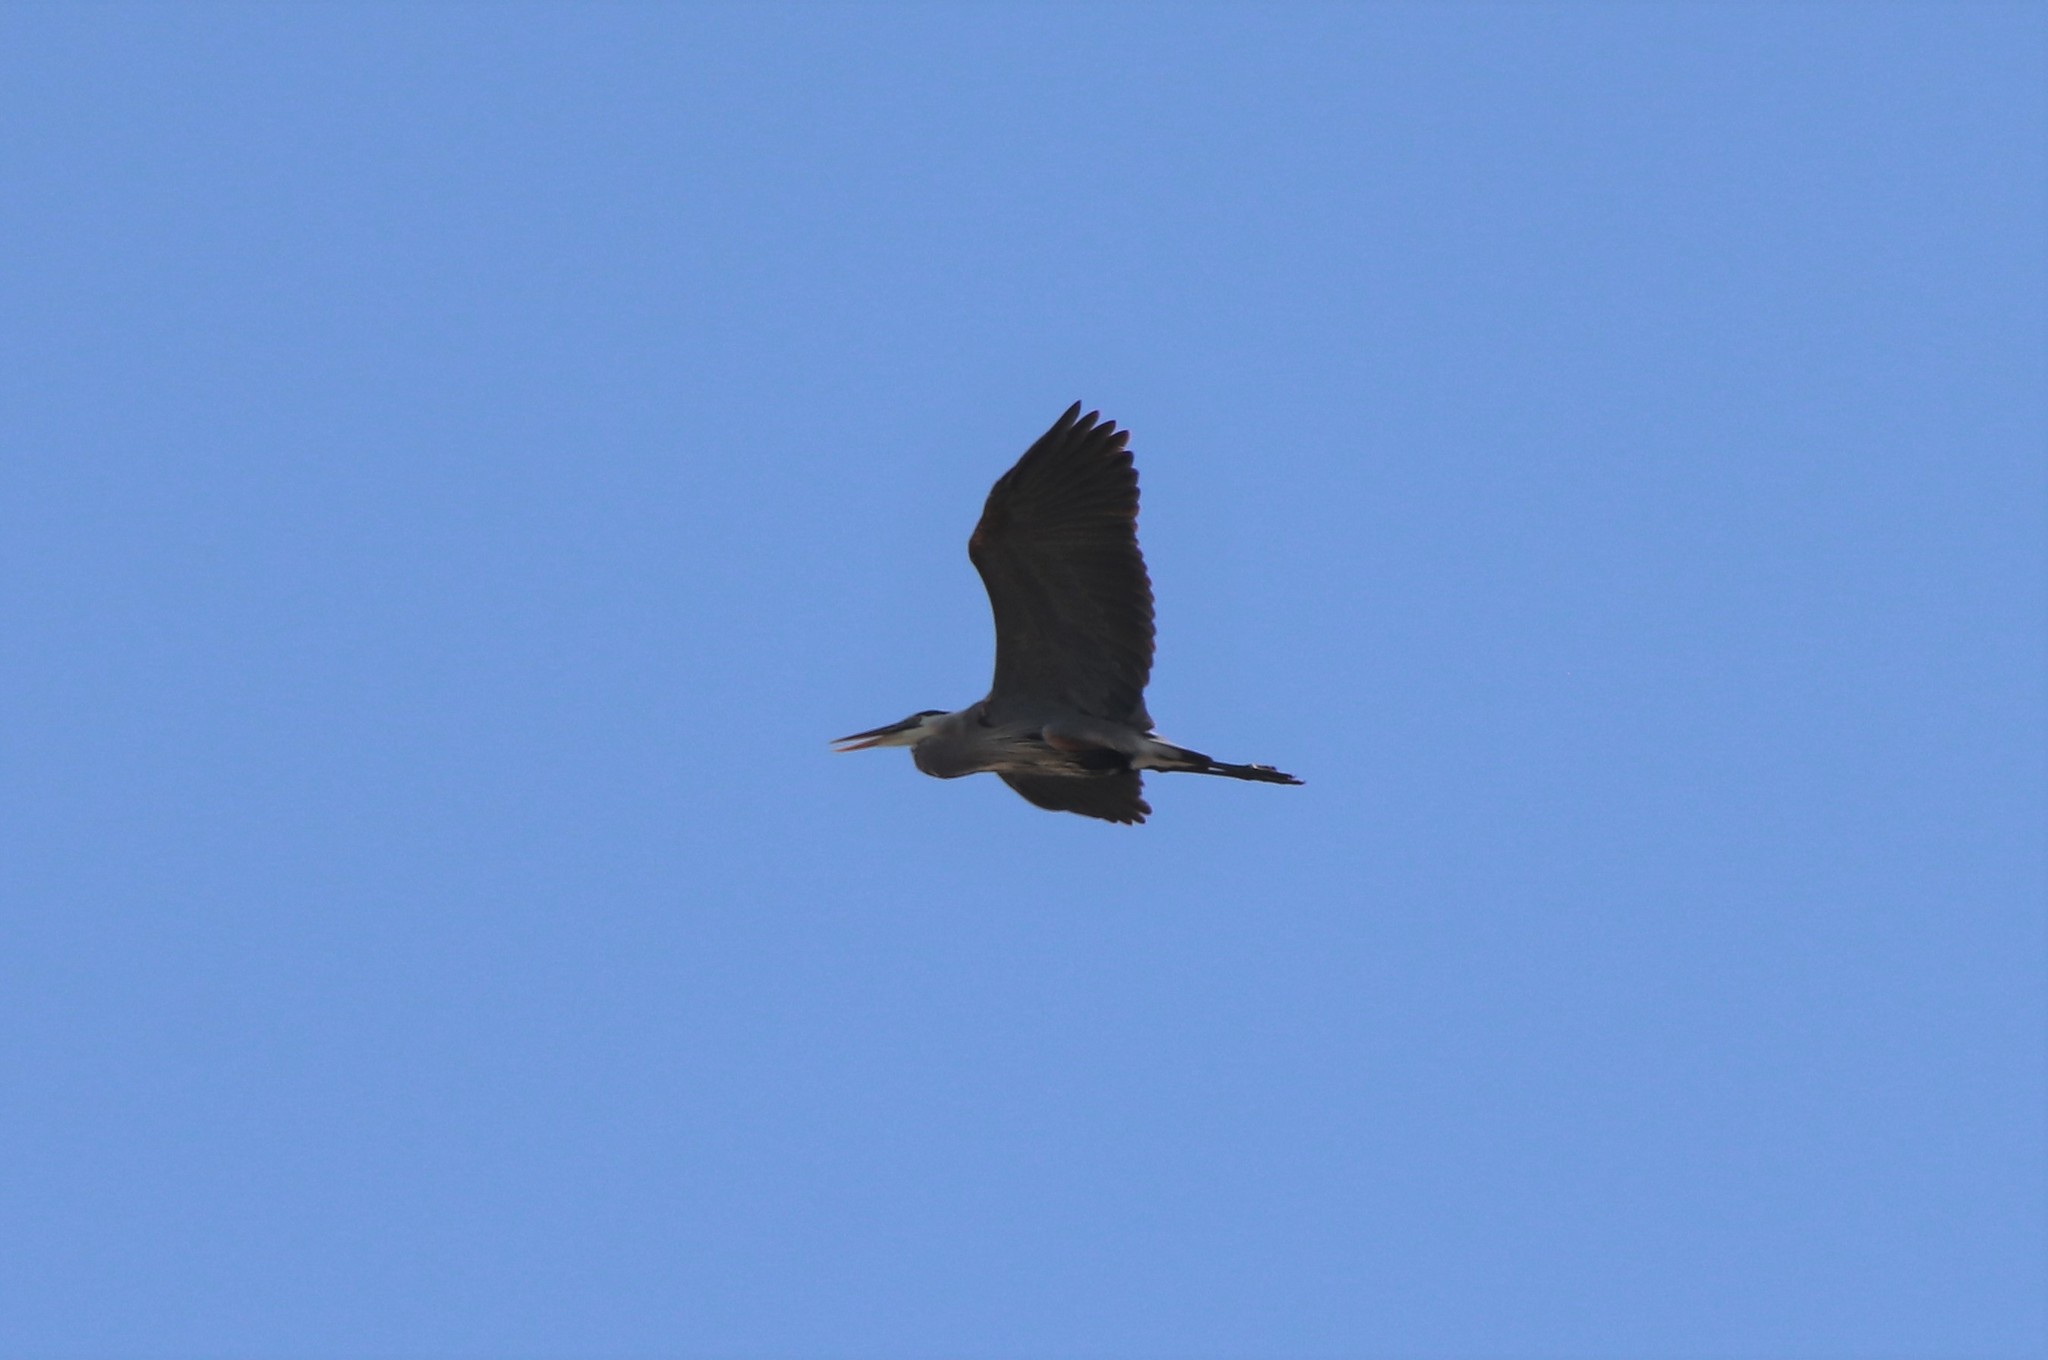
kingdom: Animalia
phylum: Chordata
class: Aves
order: Pelecaniformes
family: Ardeidae
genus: Ardea
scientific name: Ardea herodias
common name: Great blue heron
